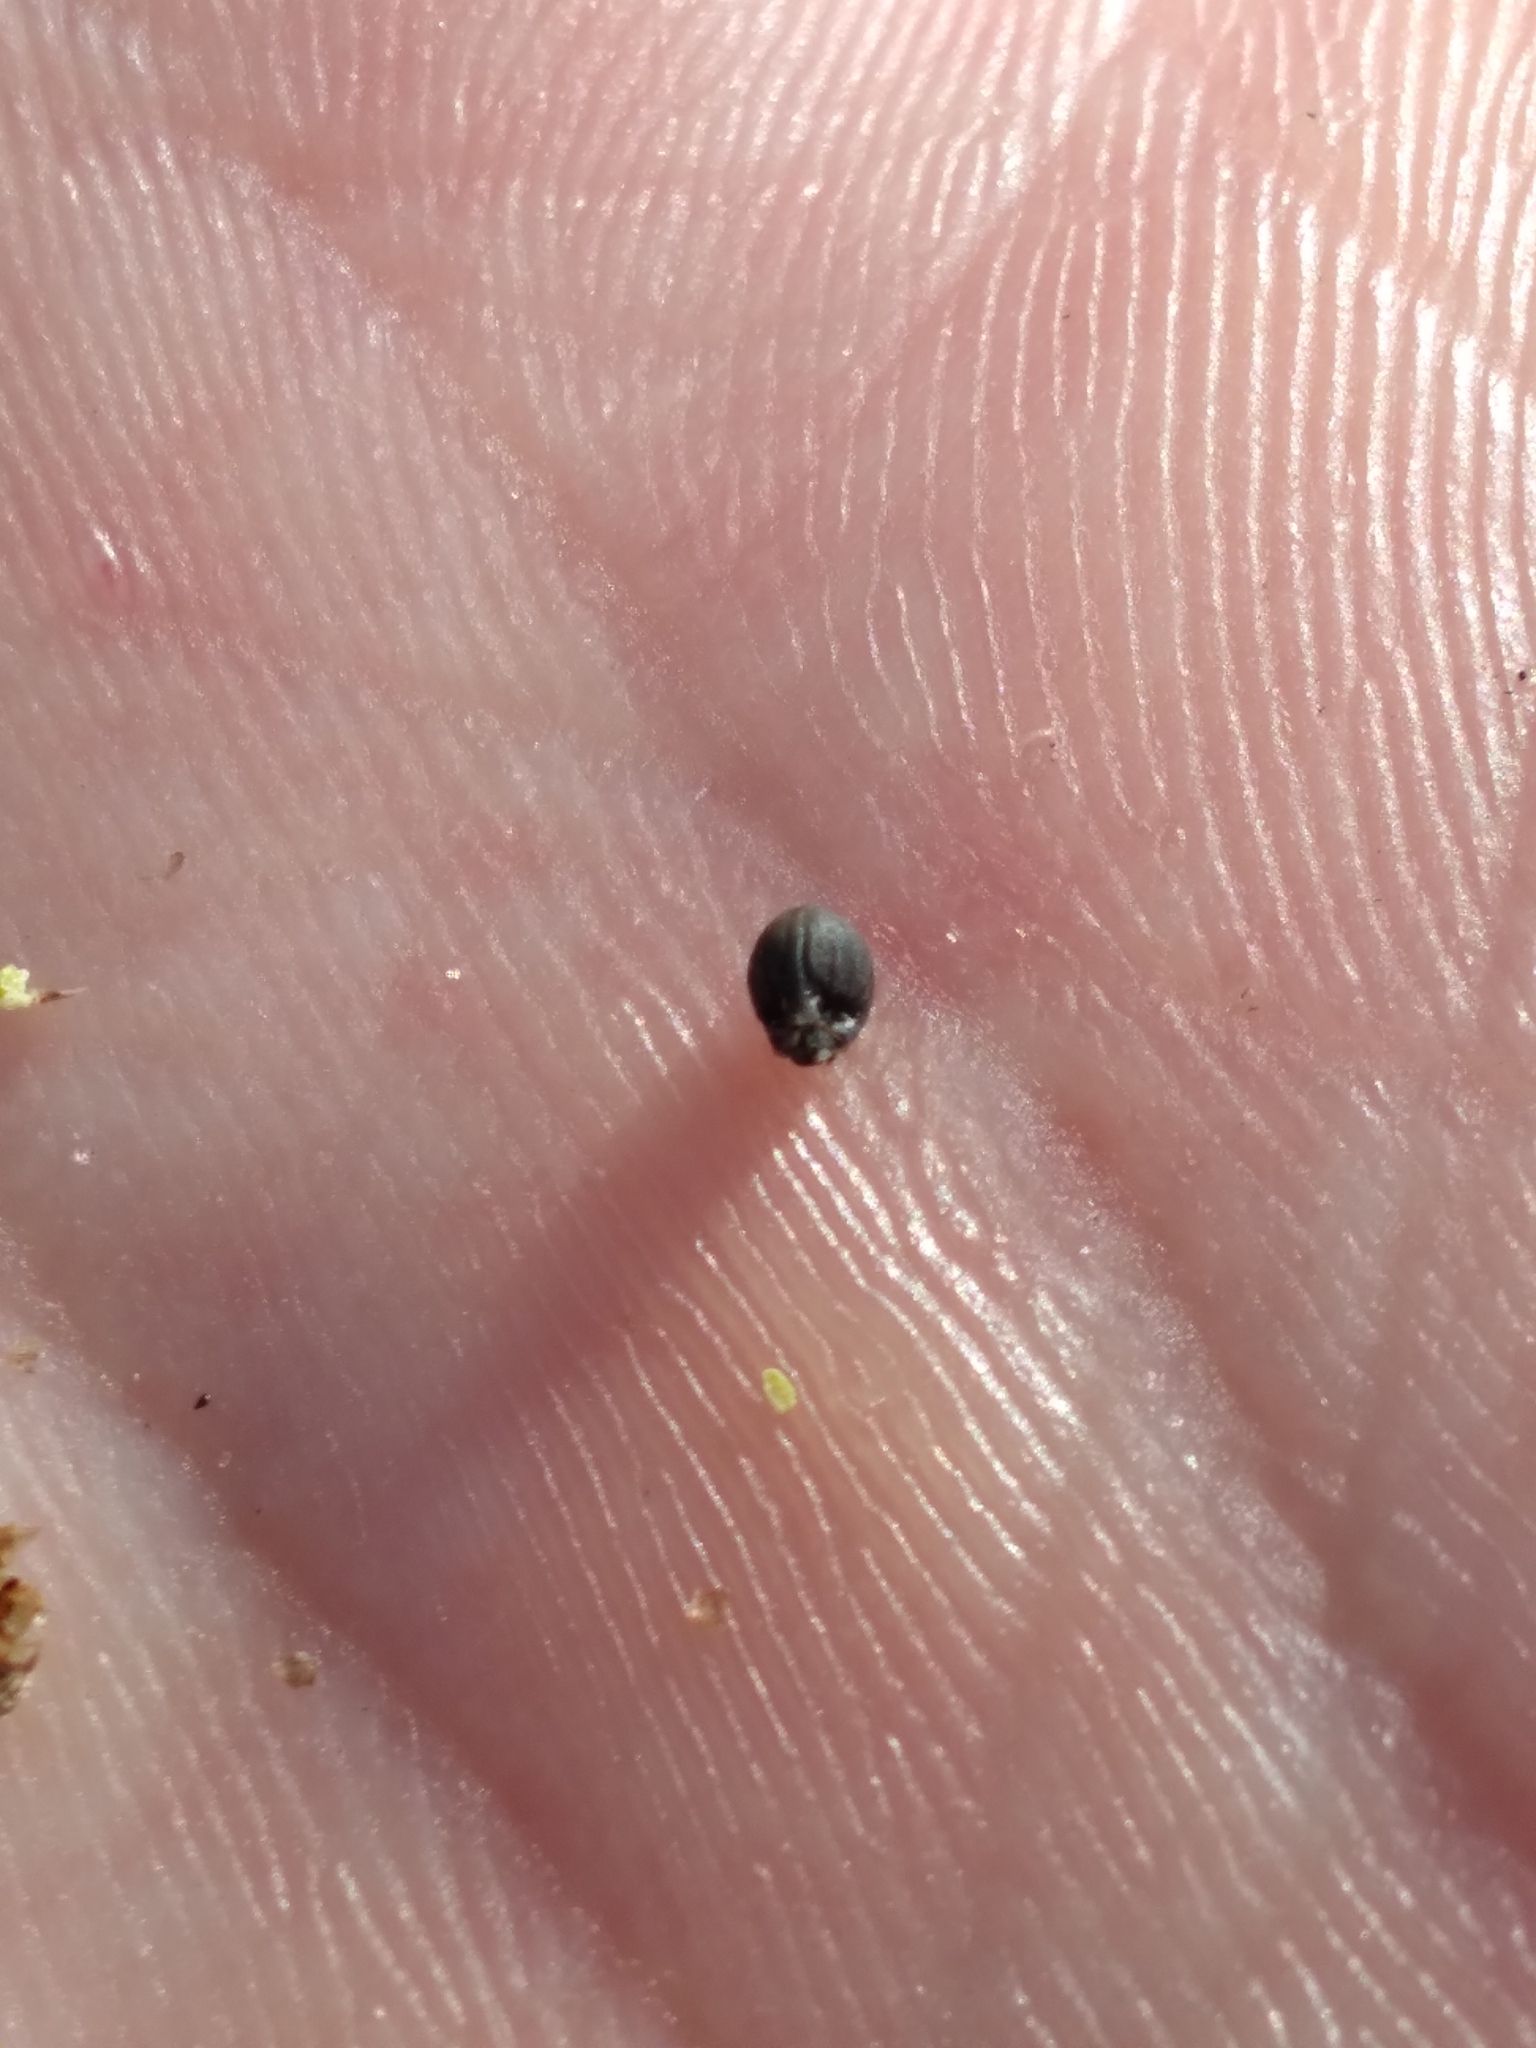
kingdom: Plantae
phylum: Tracheophyta
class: Liliopsida
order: Poales
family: Cyperaceae
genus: Scleria
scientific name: Scleria georgiana
